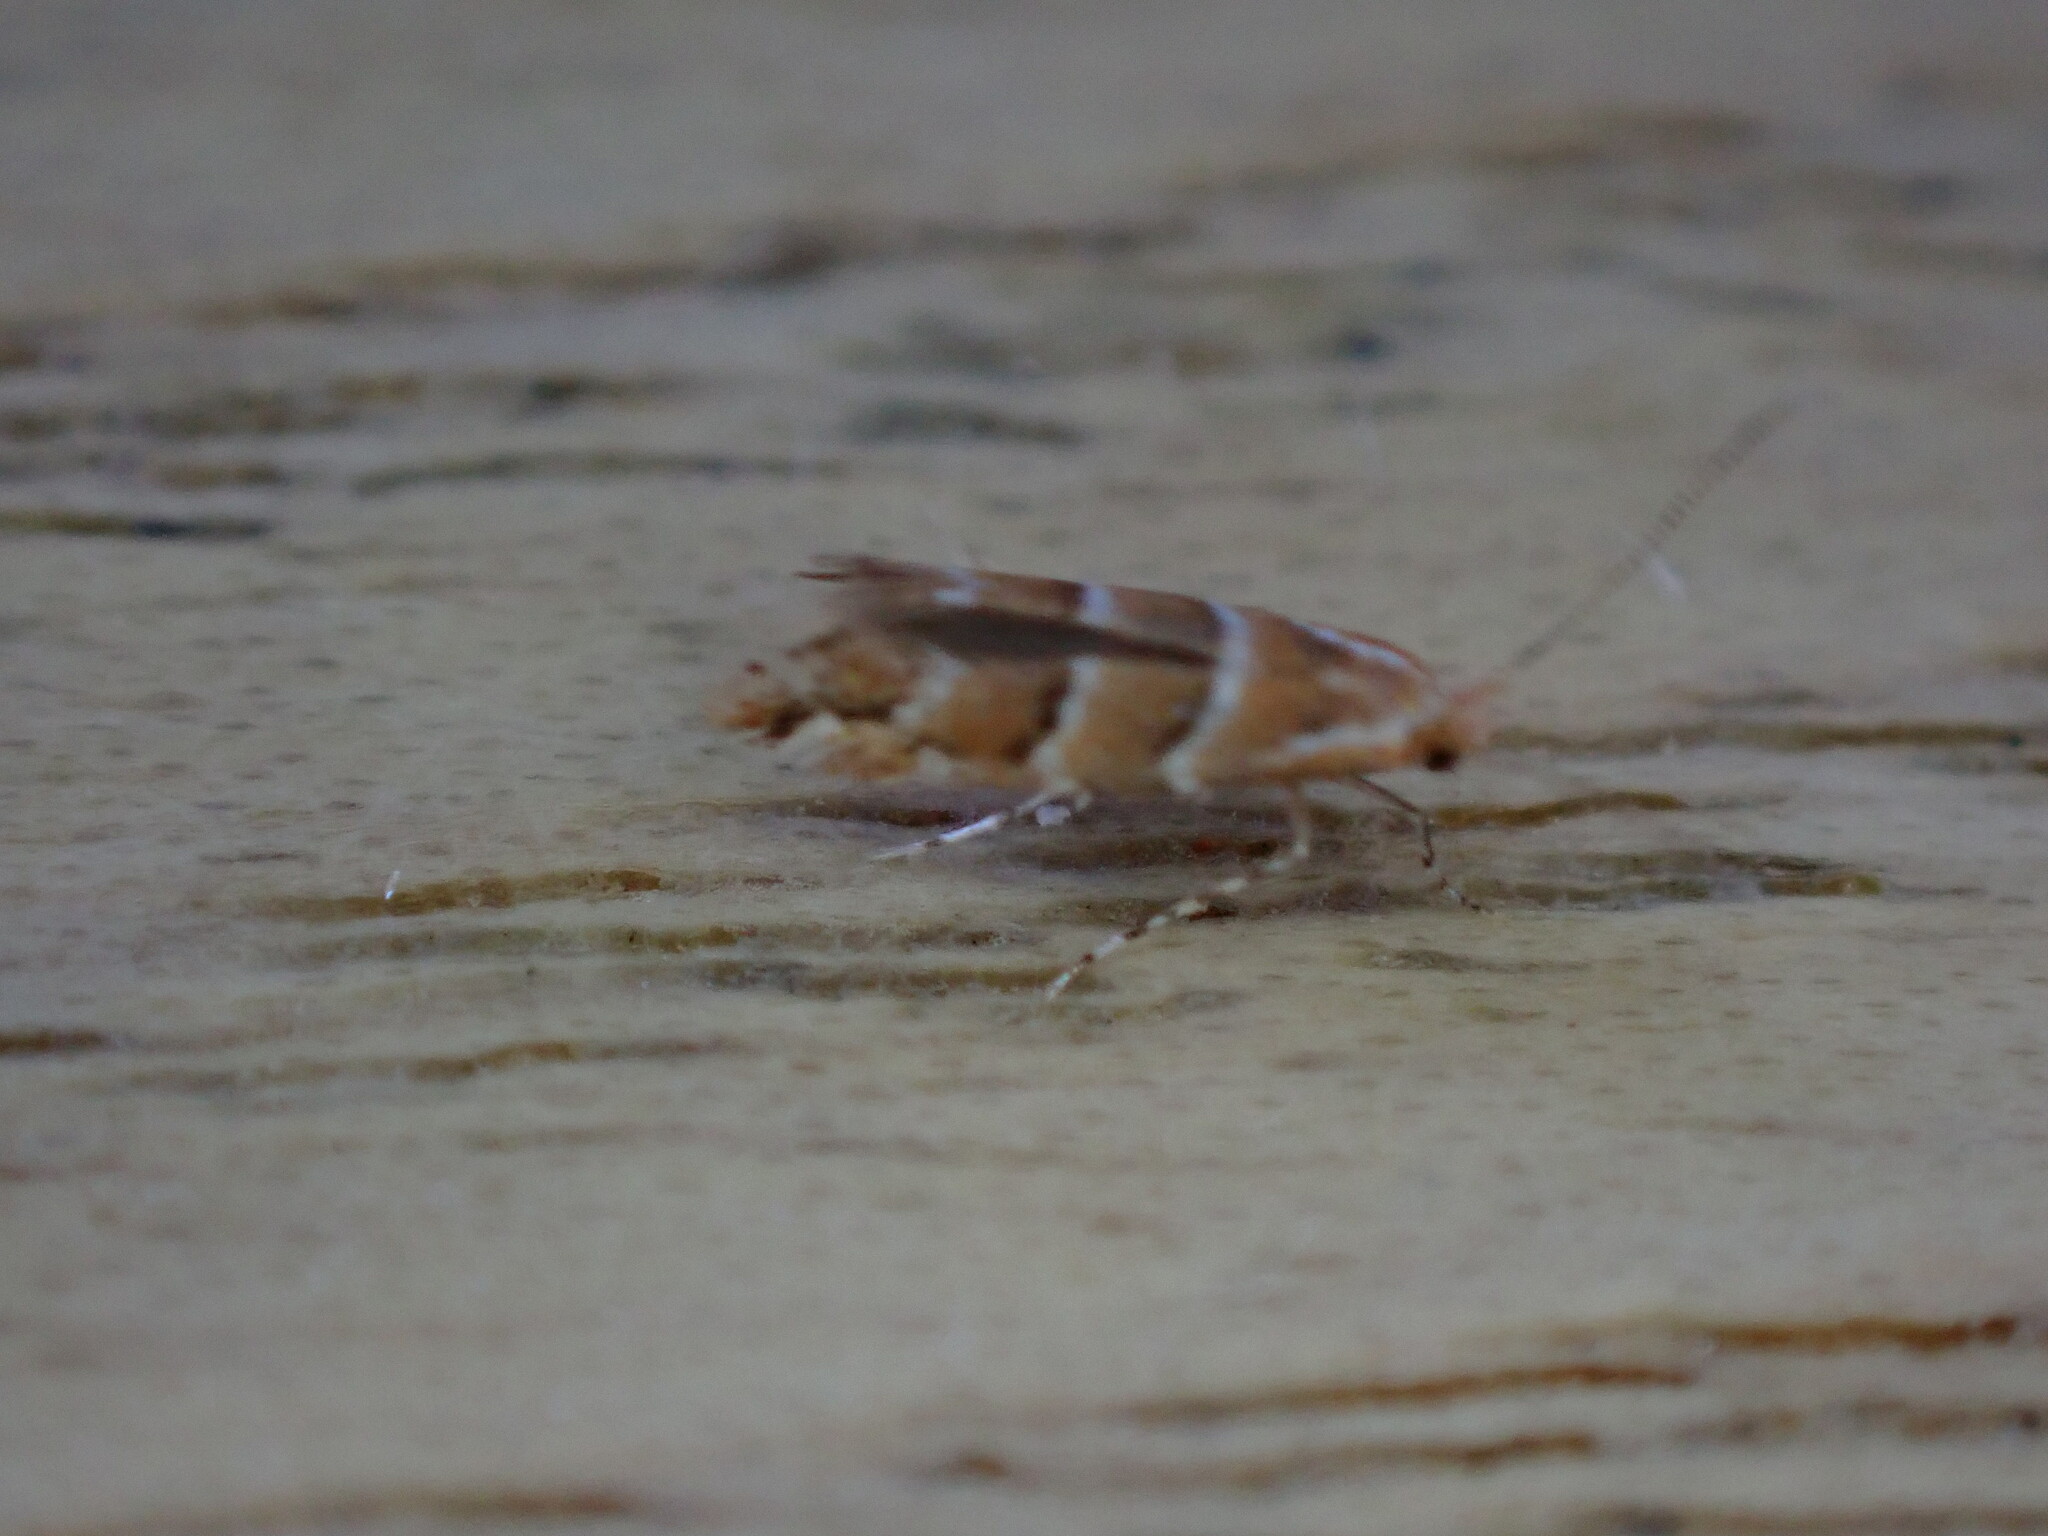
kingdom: Animalia
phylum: Arthropoda
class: Insecta
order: Lepidoptera
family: Gracillariidae
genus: Cameraria
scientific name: Cameraria ohridella
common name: Horse-chestnut leaf-miner
